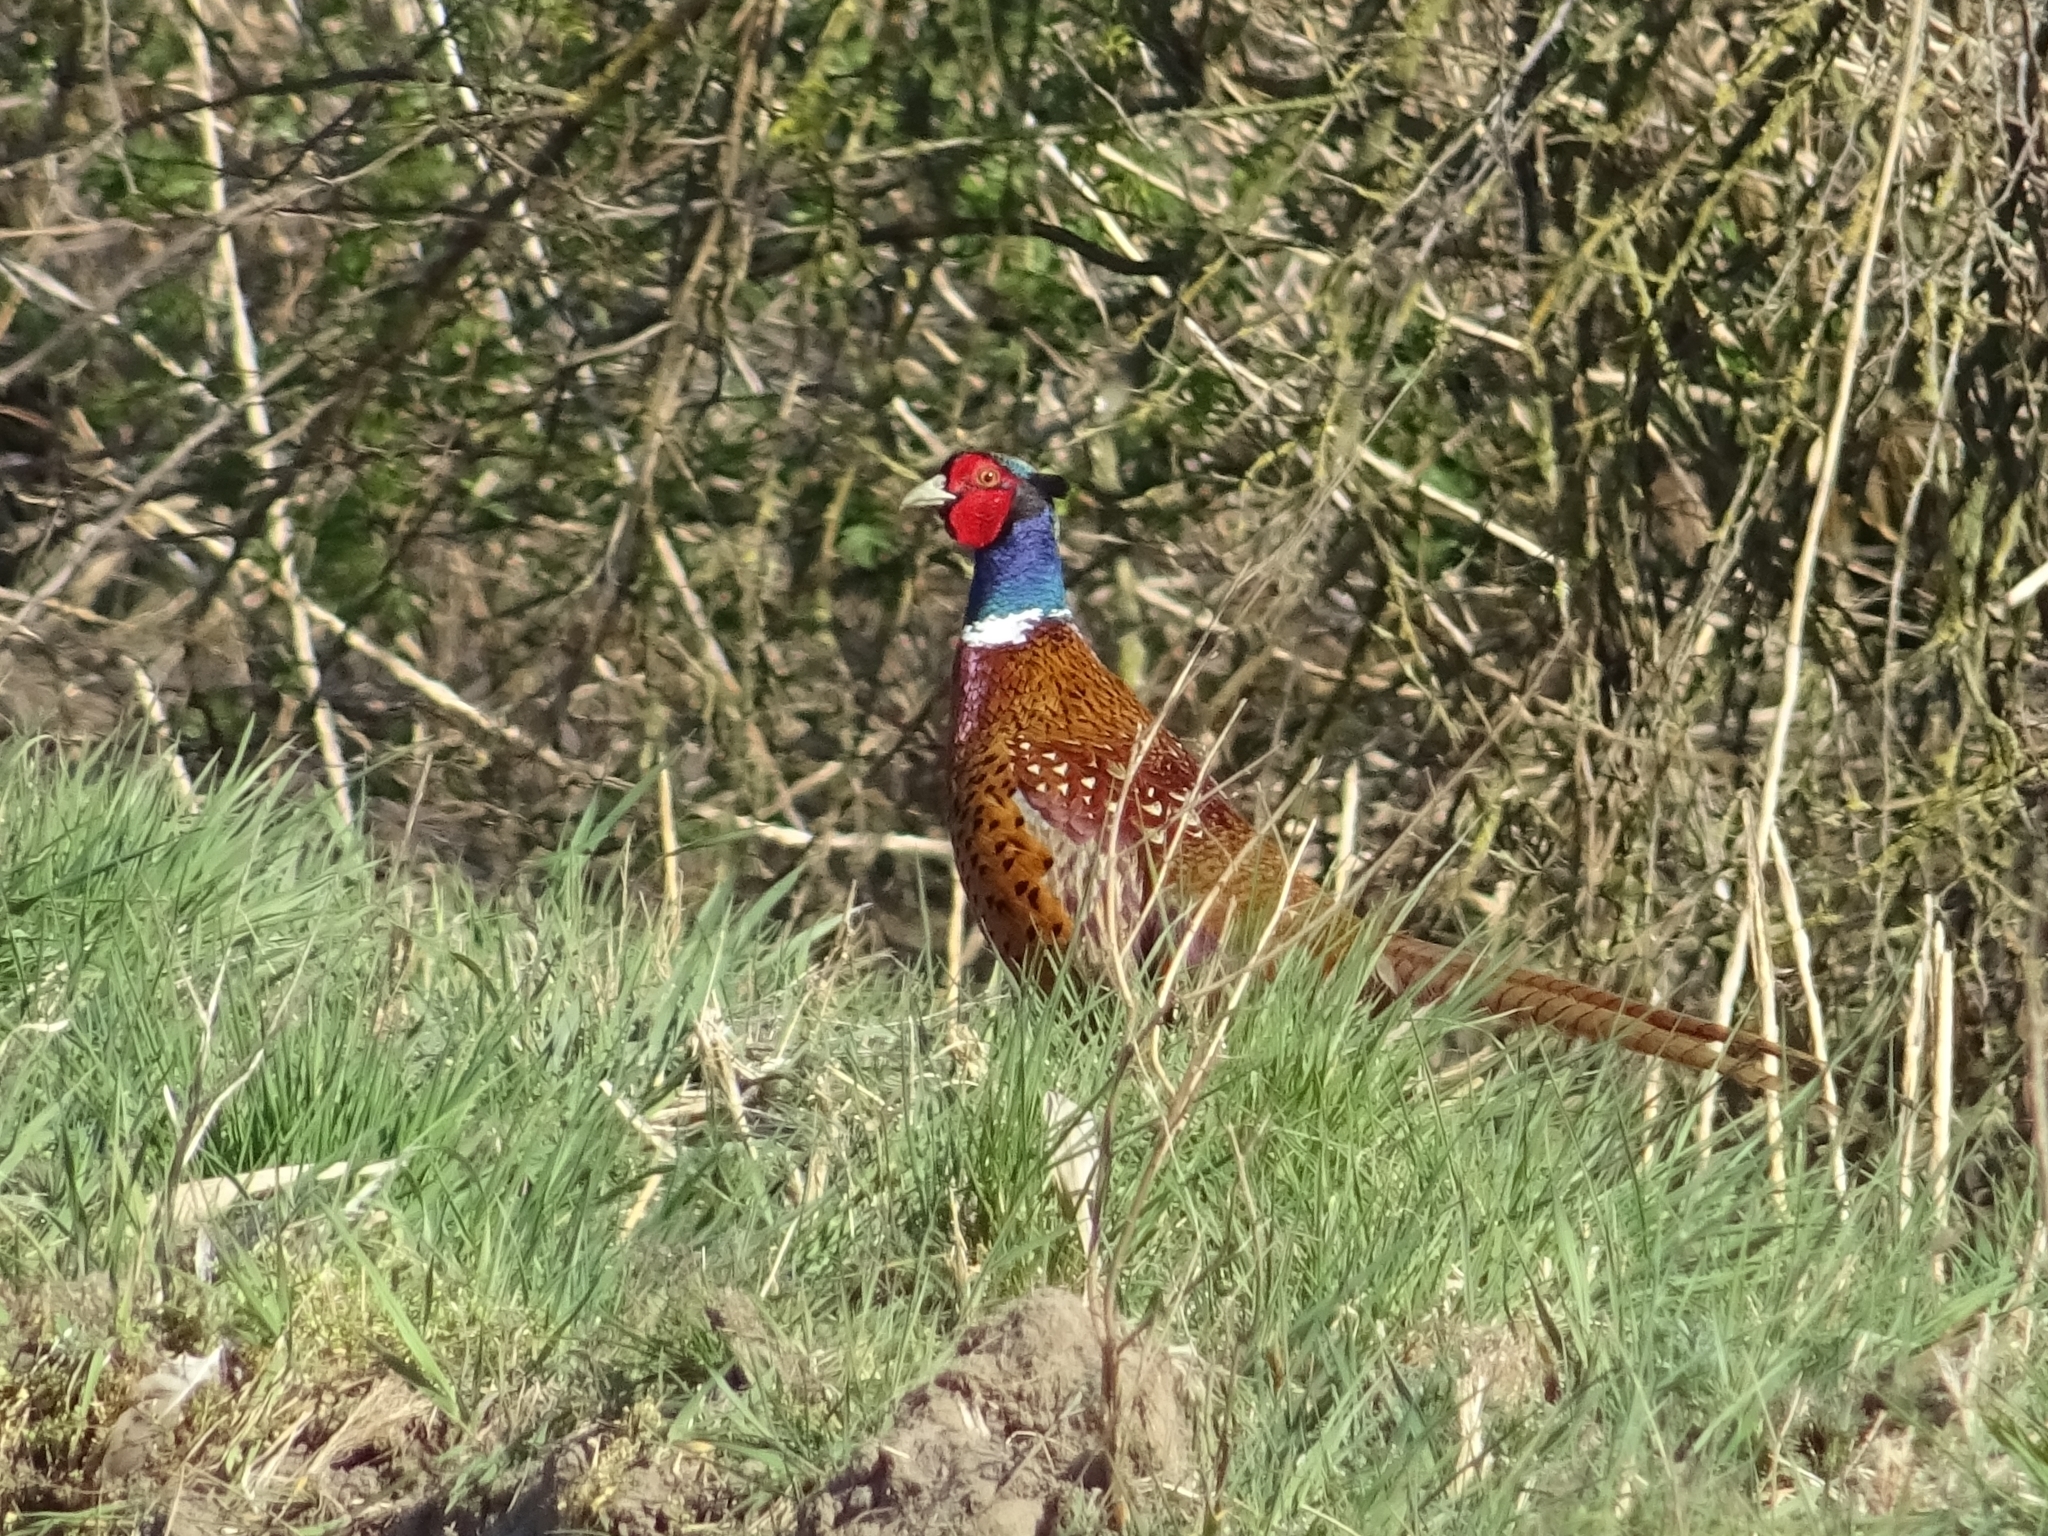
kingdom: Animalia
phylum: Chordata
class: Aves
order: Galliformes
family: Phasianidae
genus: Phasianus
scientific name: Phasianus colchicus
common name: Common pheasant
